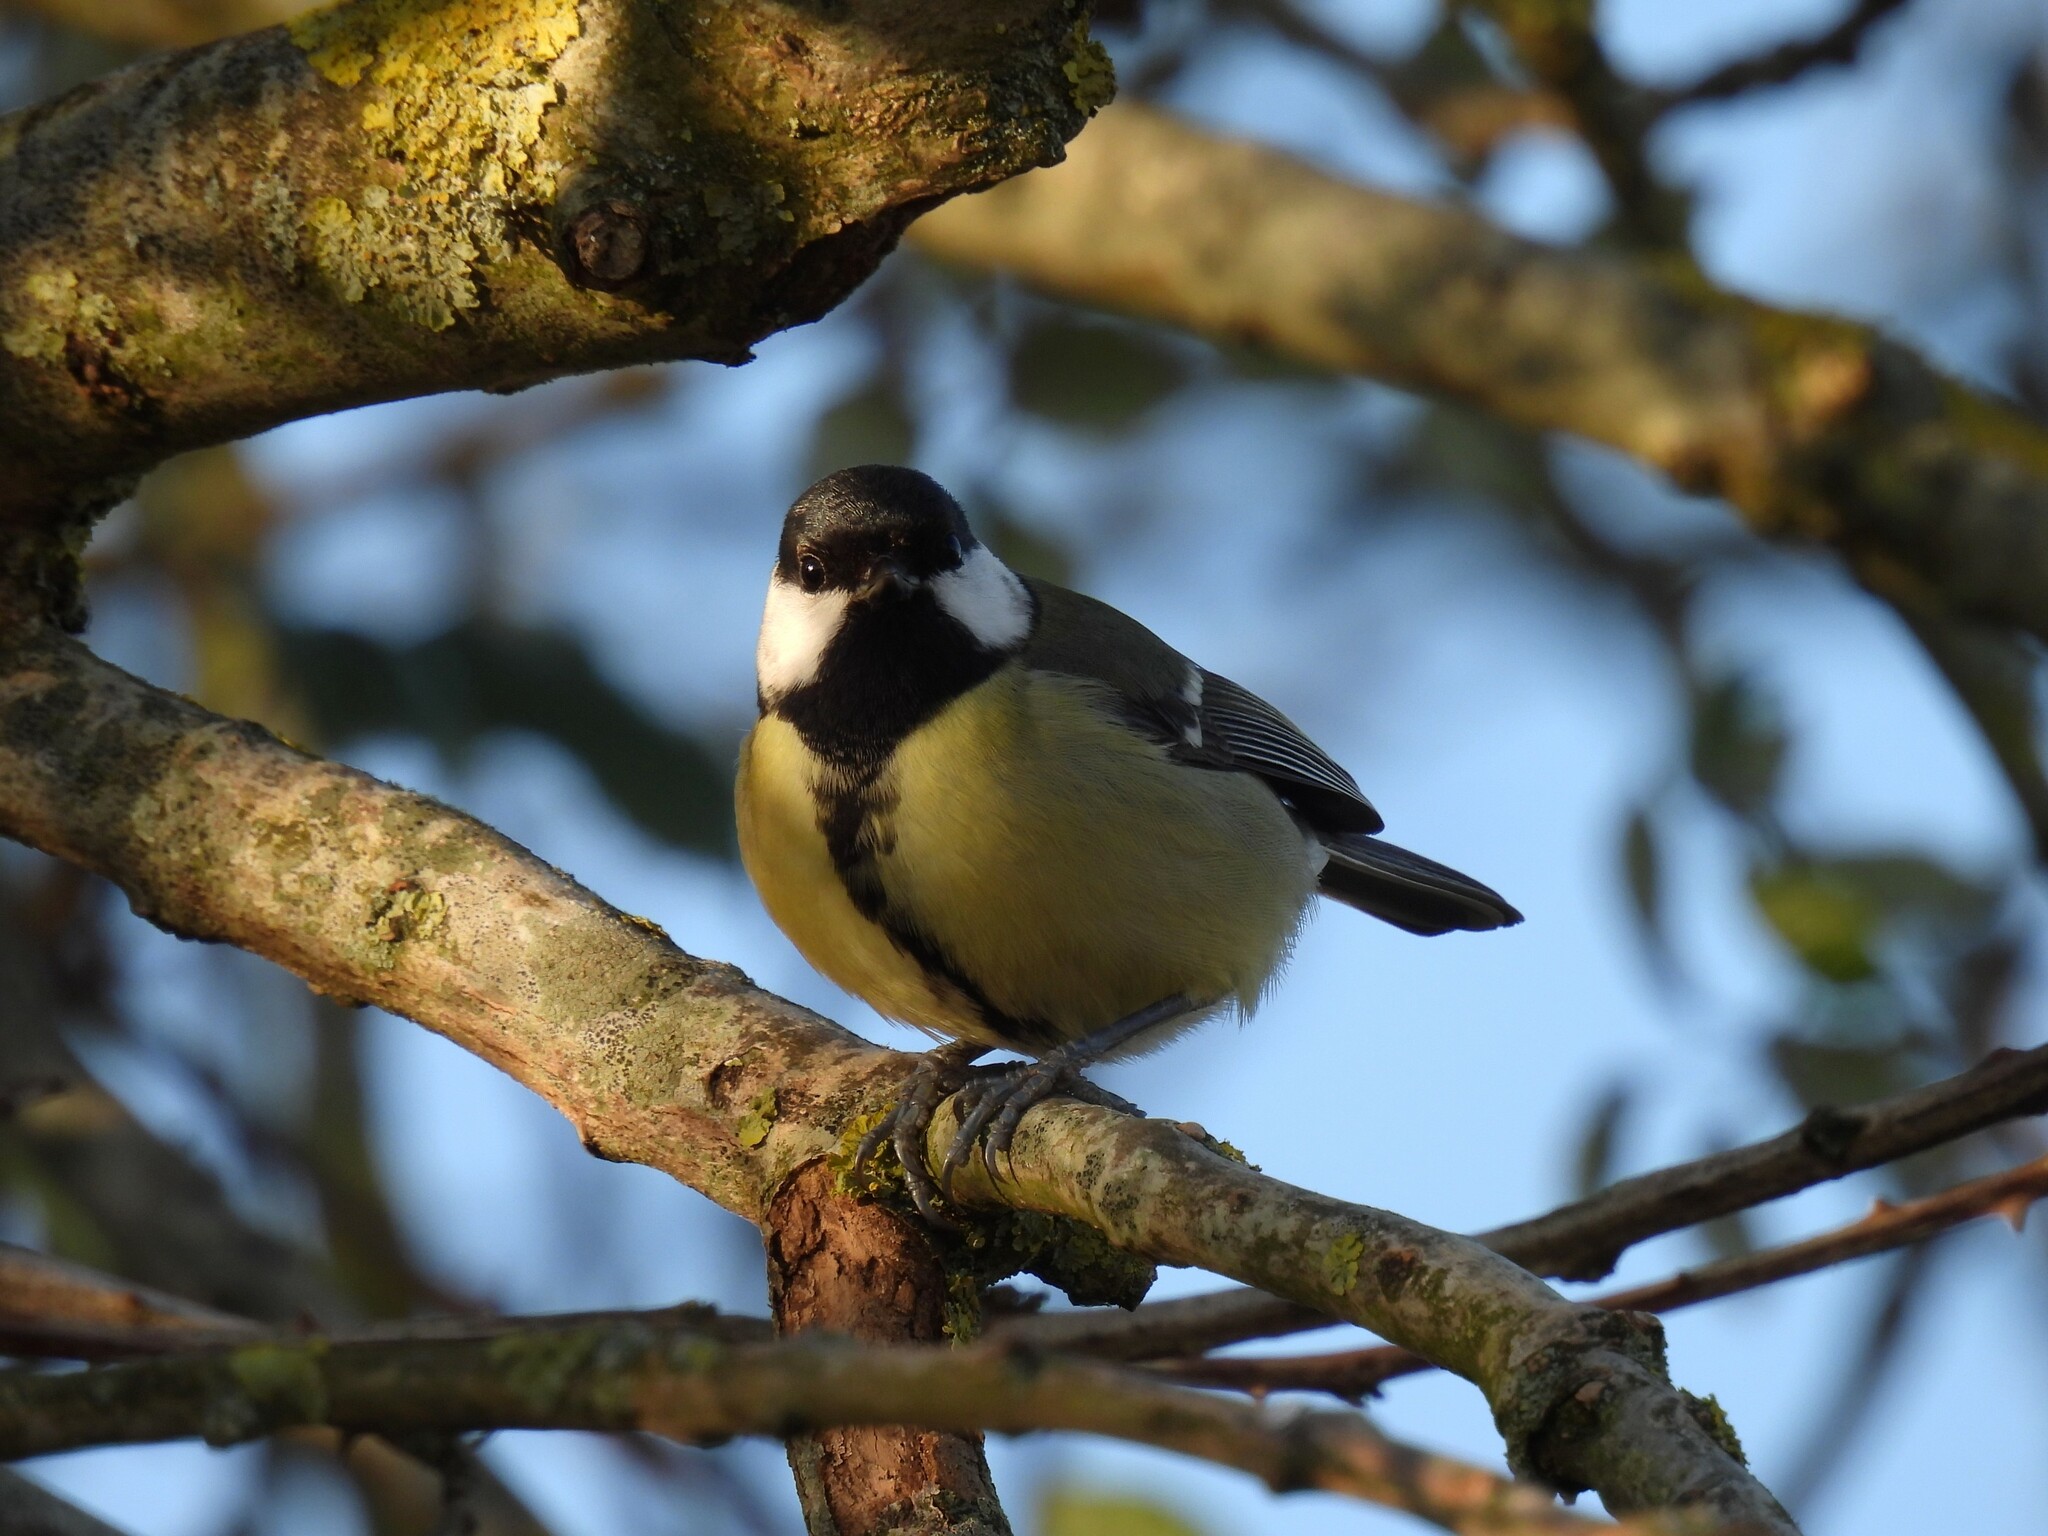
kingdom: Animalia
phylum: Chordata
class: Aves
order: Passeriformes
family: Paridae
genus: Parus
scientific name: Parus major
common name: Great tit
